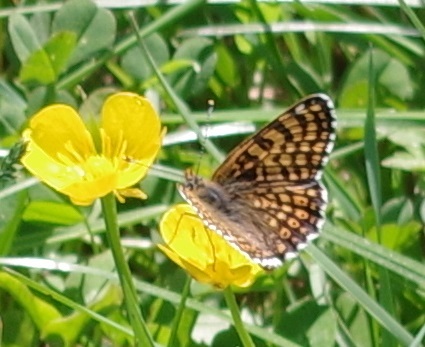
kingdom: Animalia
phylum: Arthropoda
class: Insecta
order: Lepidoptera
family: Nymphalidae
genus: Melitaea
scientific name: Melitaea cinxia
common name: Glanville fritillary
